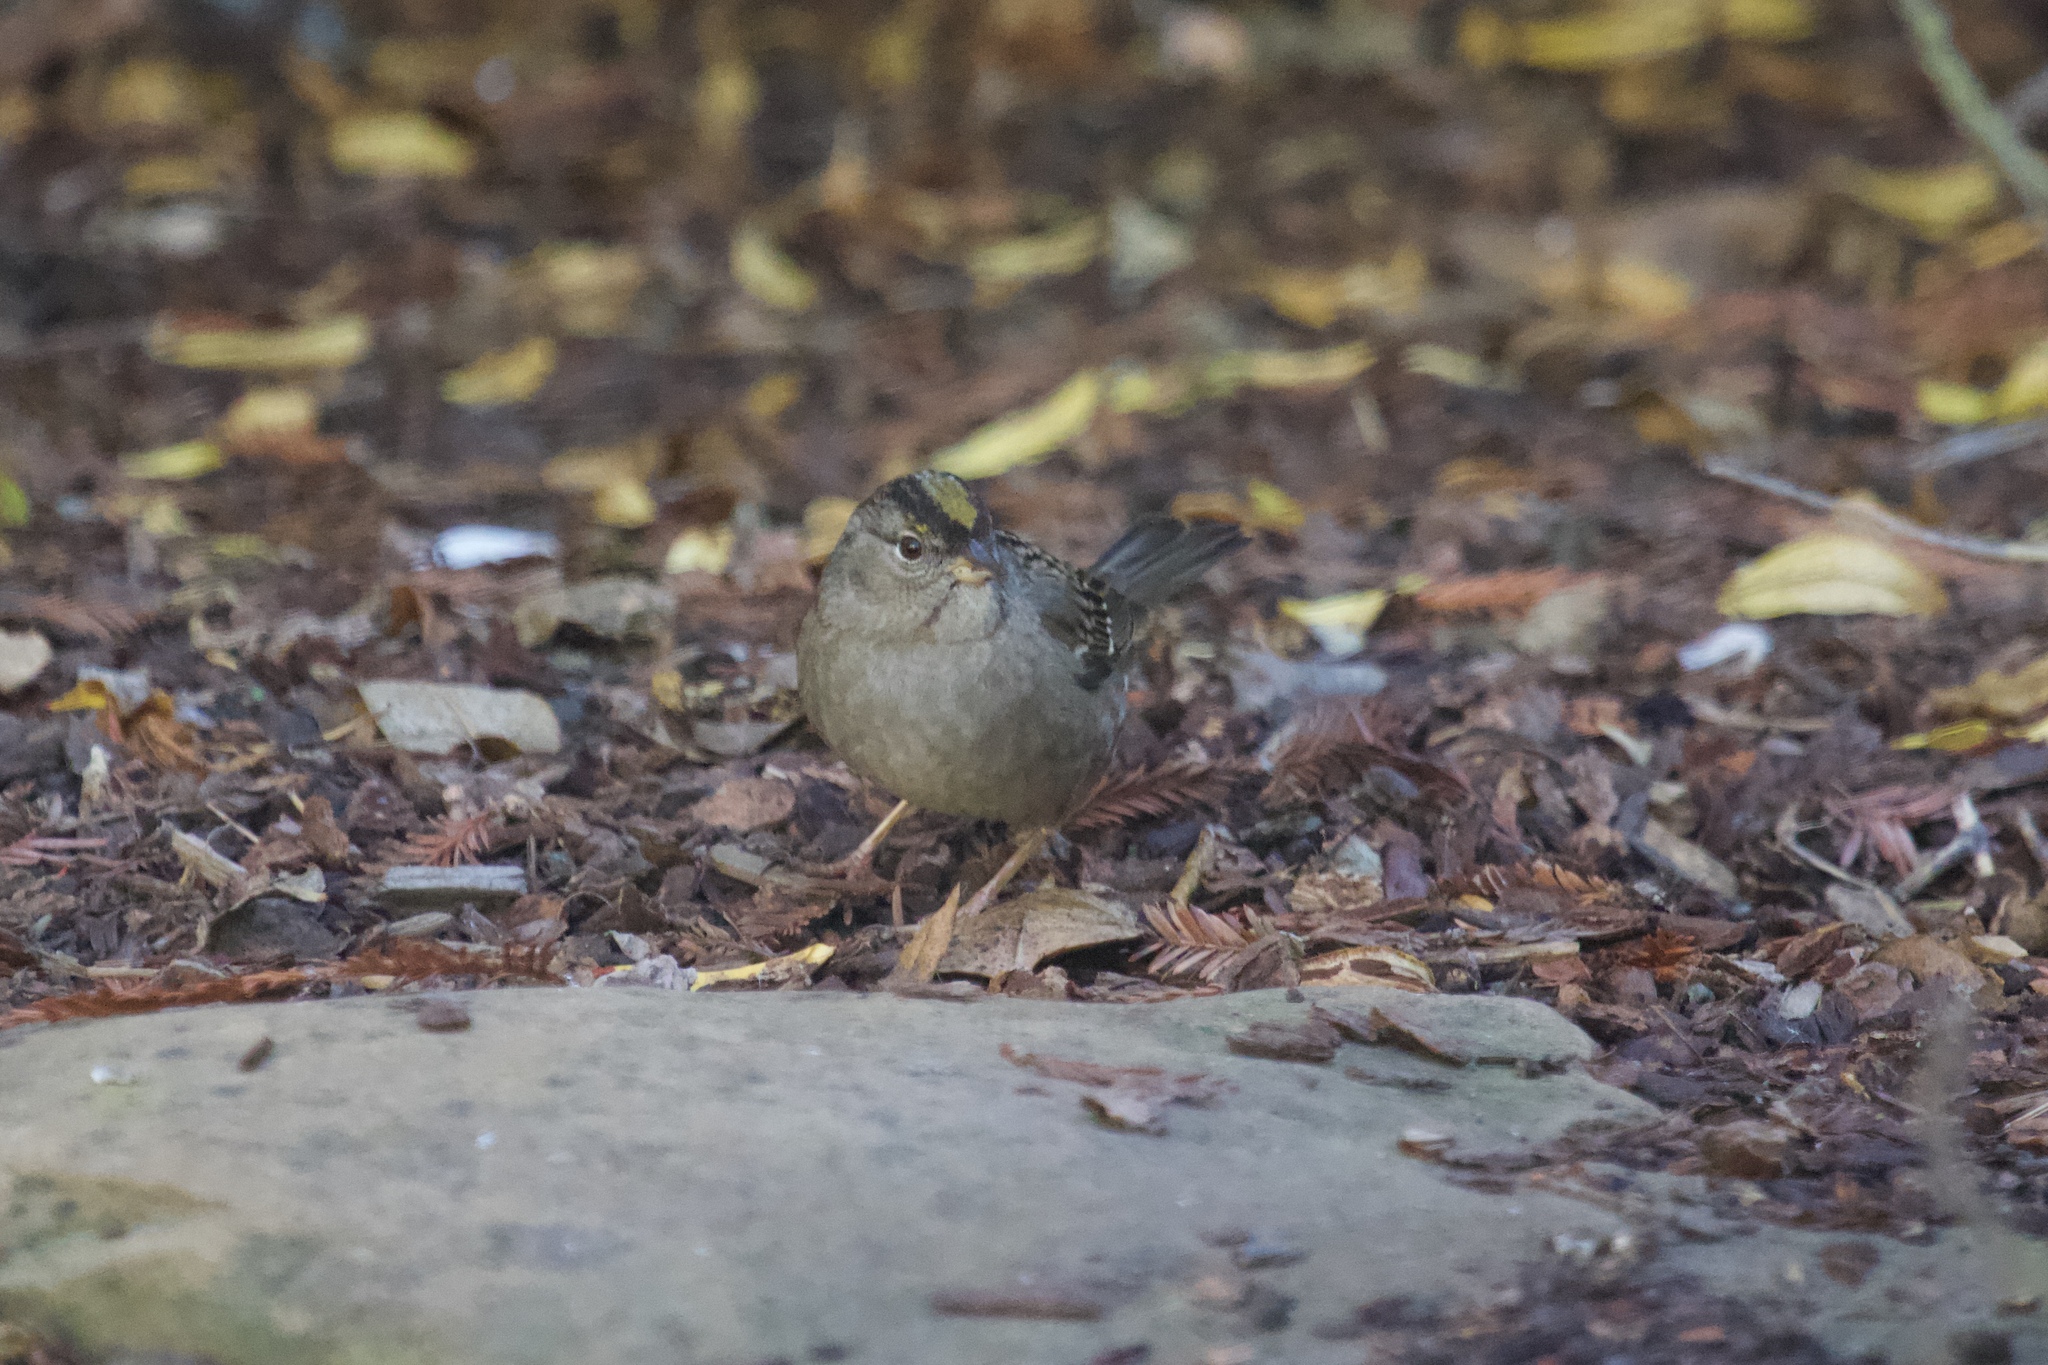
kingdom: Animalia
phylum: Chordata
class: Aves
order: Passeriformes
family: Passerellidae
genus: Zonotrichia
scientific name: Zonotrichia atricapilla
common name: Golden-crowned sparrow
